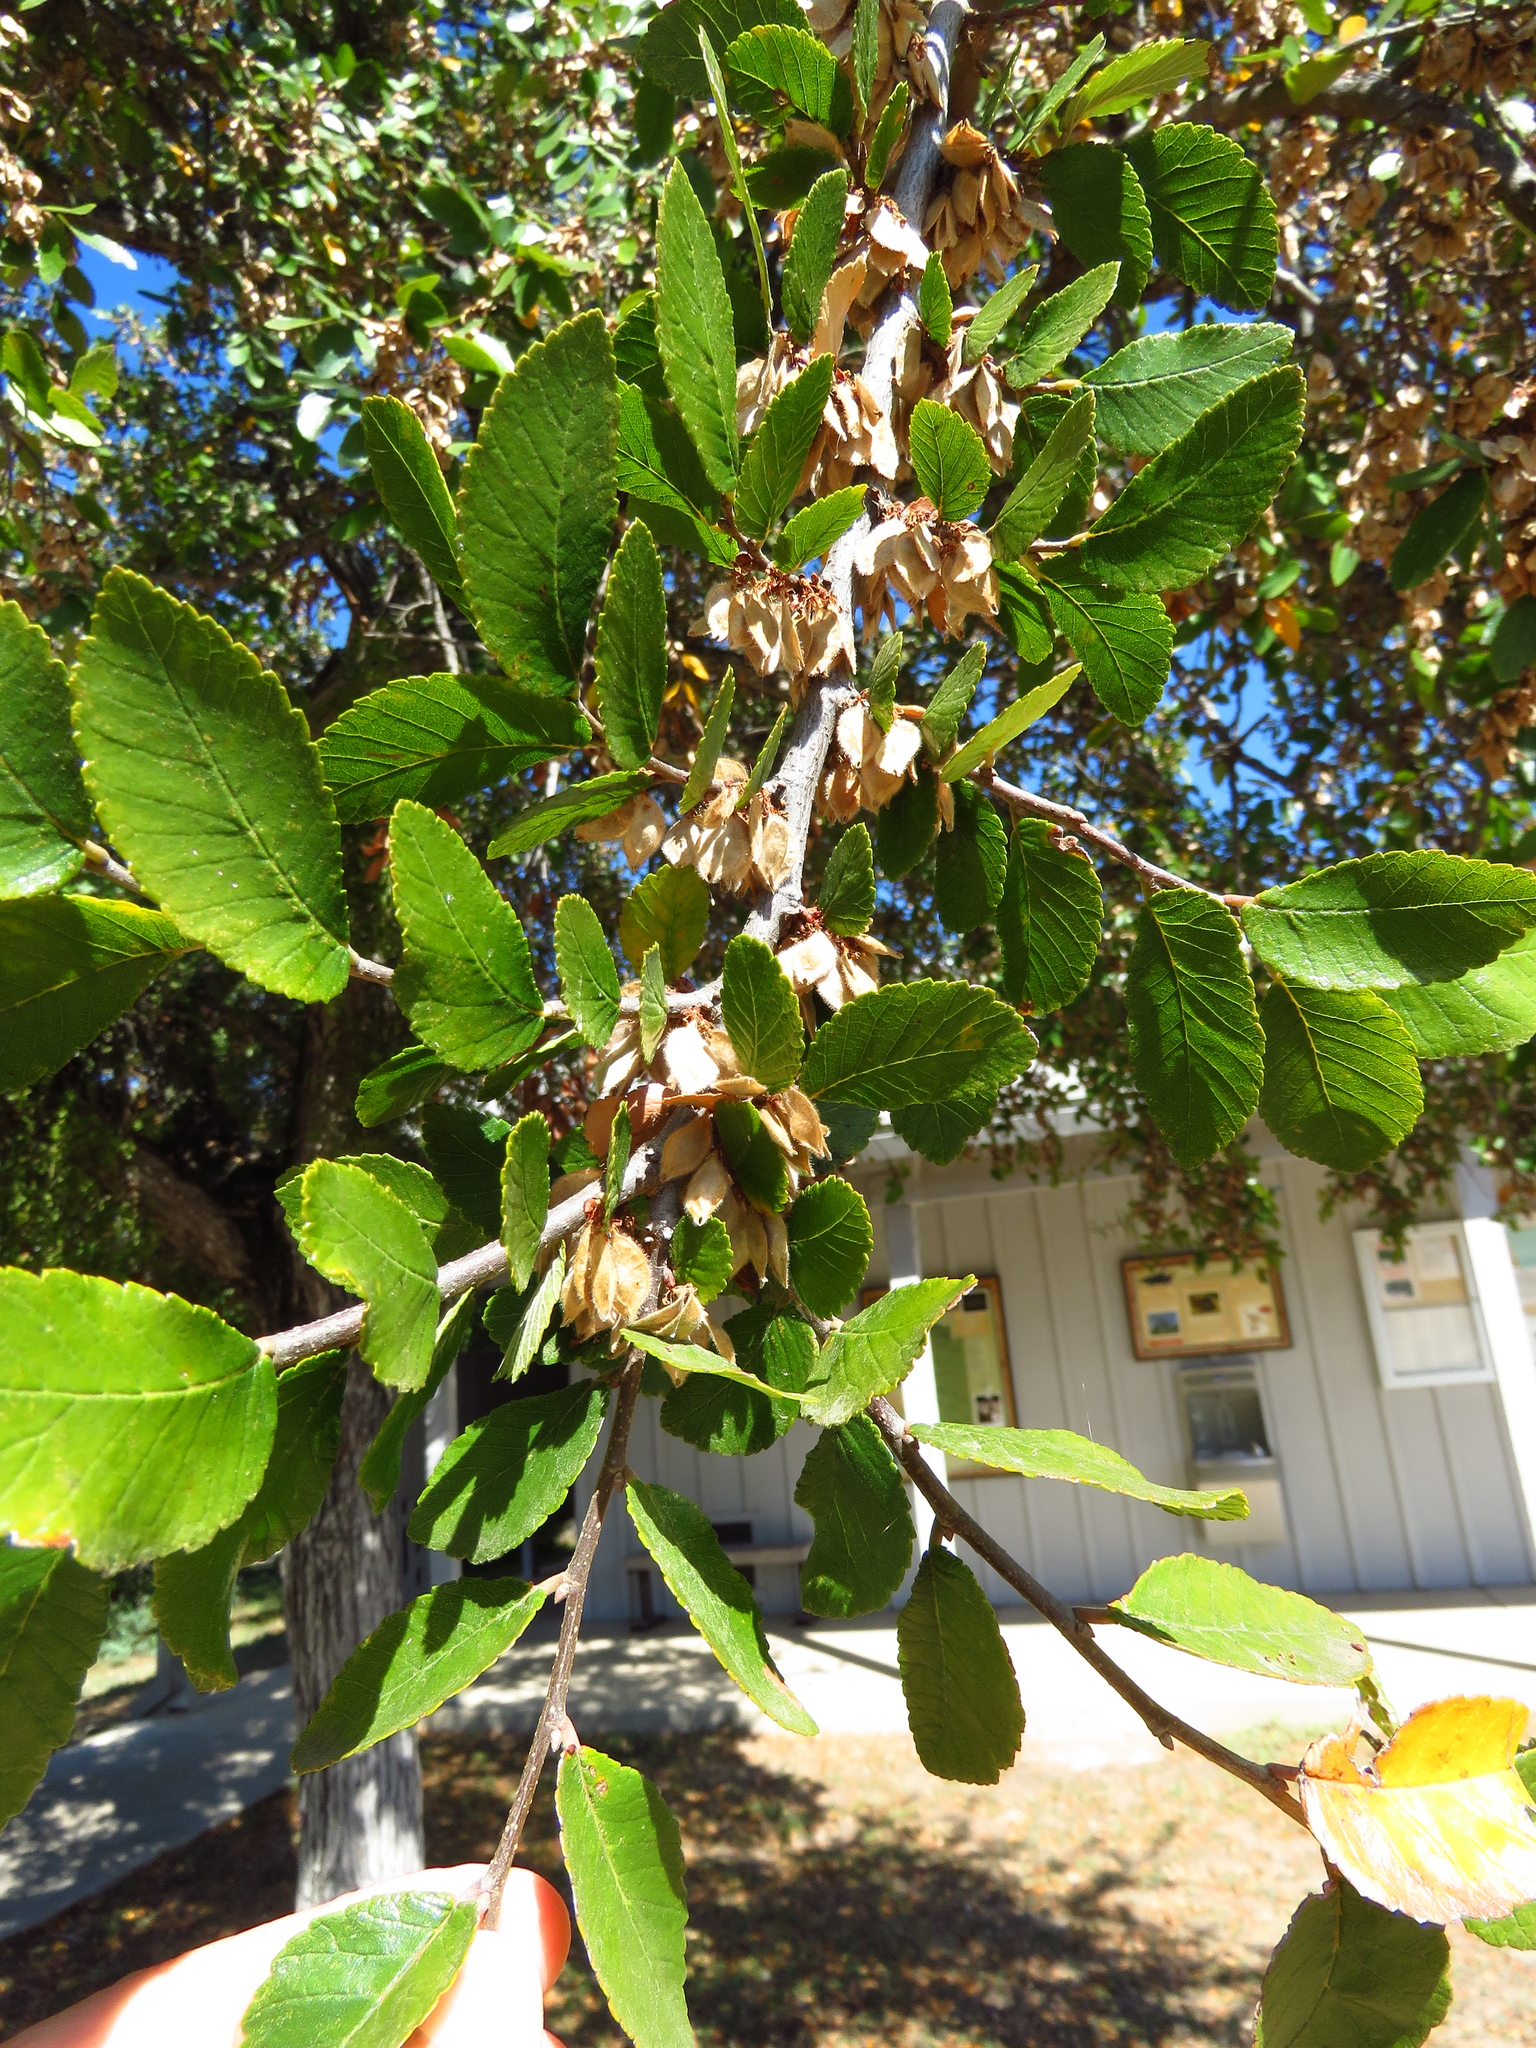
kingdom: Plantae
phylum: Tracheophyta
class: Magnoliopsida
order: Rosales
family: Ulmaceae
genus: Ulmus
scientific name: Ulmus crassifolia
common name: Basket elm
